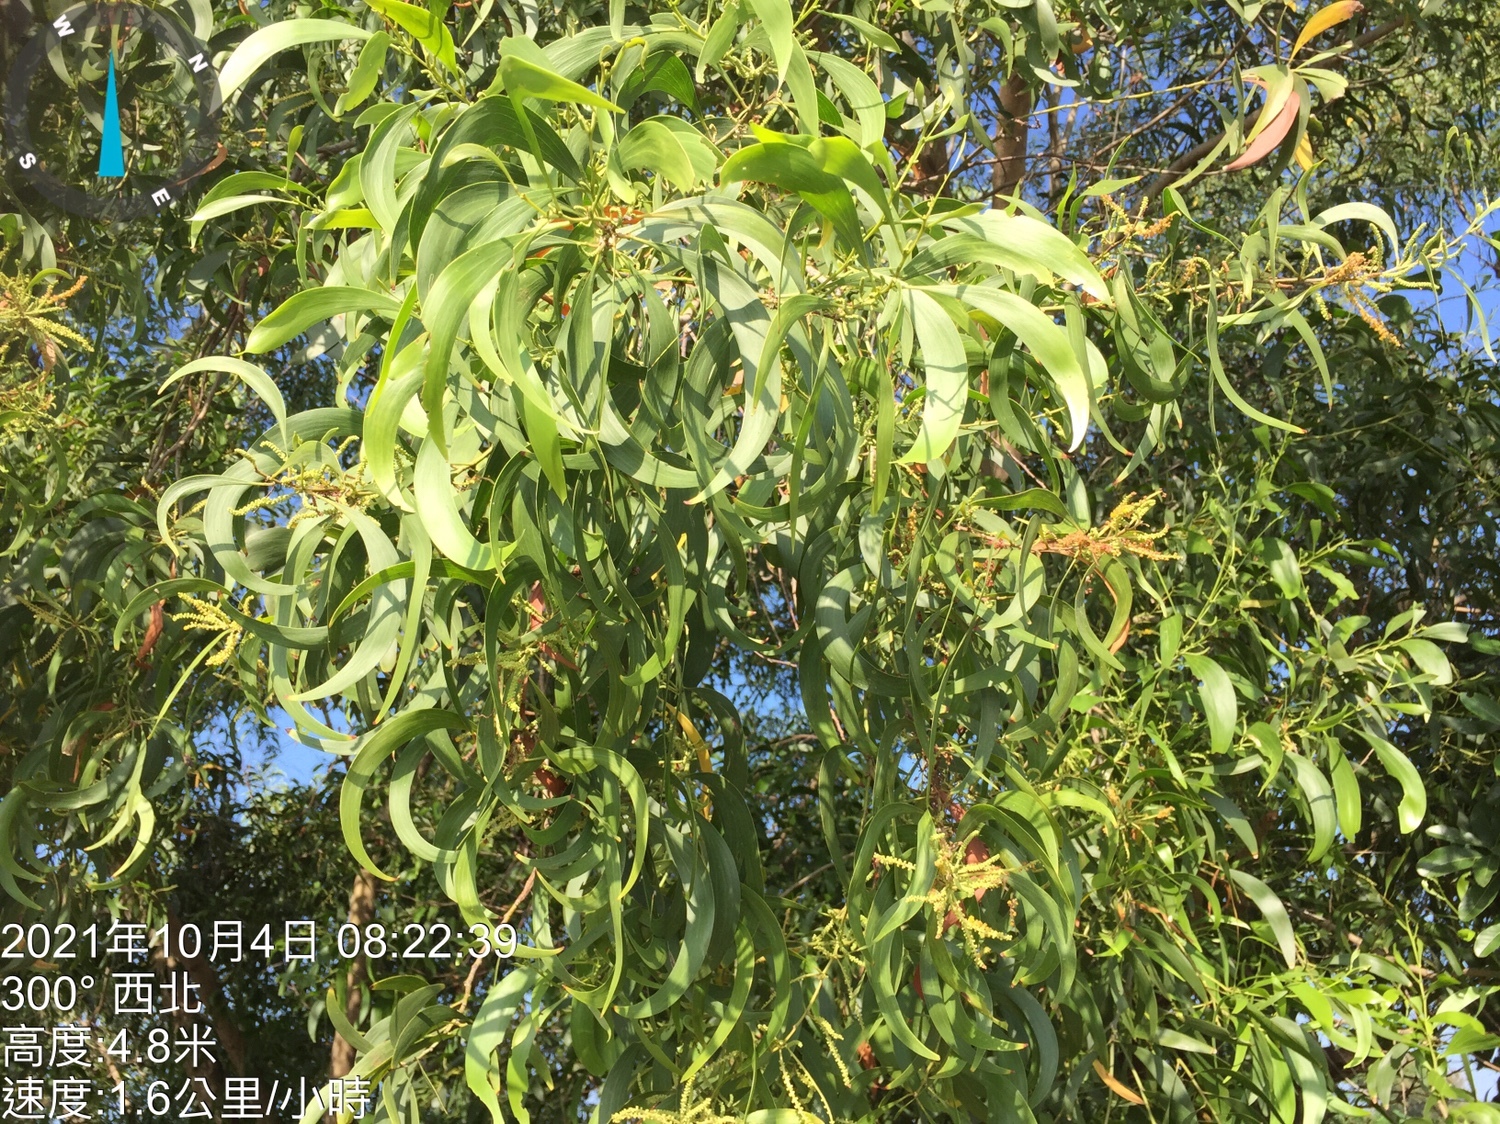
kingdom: Plantae
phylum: Tracheophyta
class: Magnoliopsida
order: Fabales
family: Fabaceae
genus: Acacia
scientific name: Acacia auriculiformis
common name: Earleaf acacia
